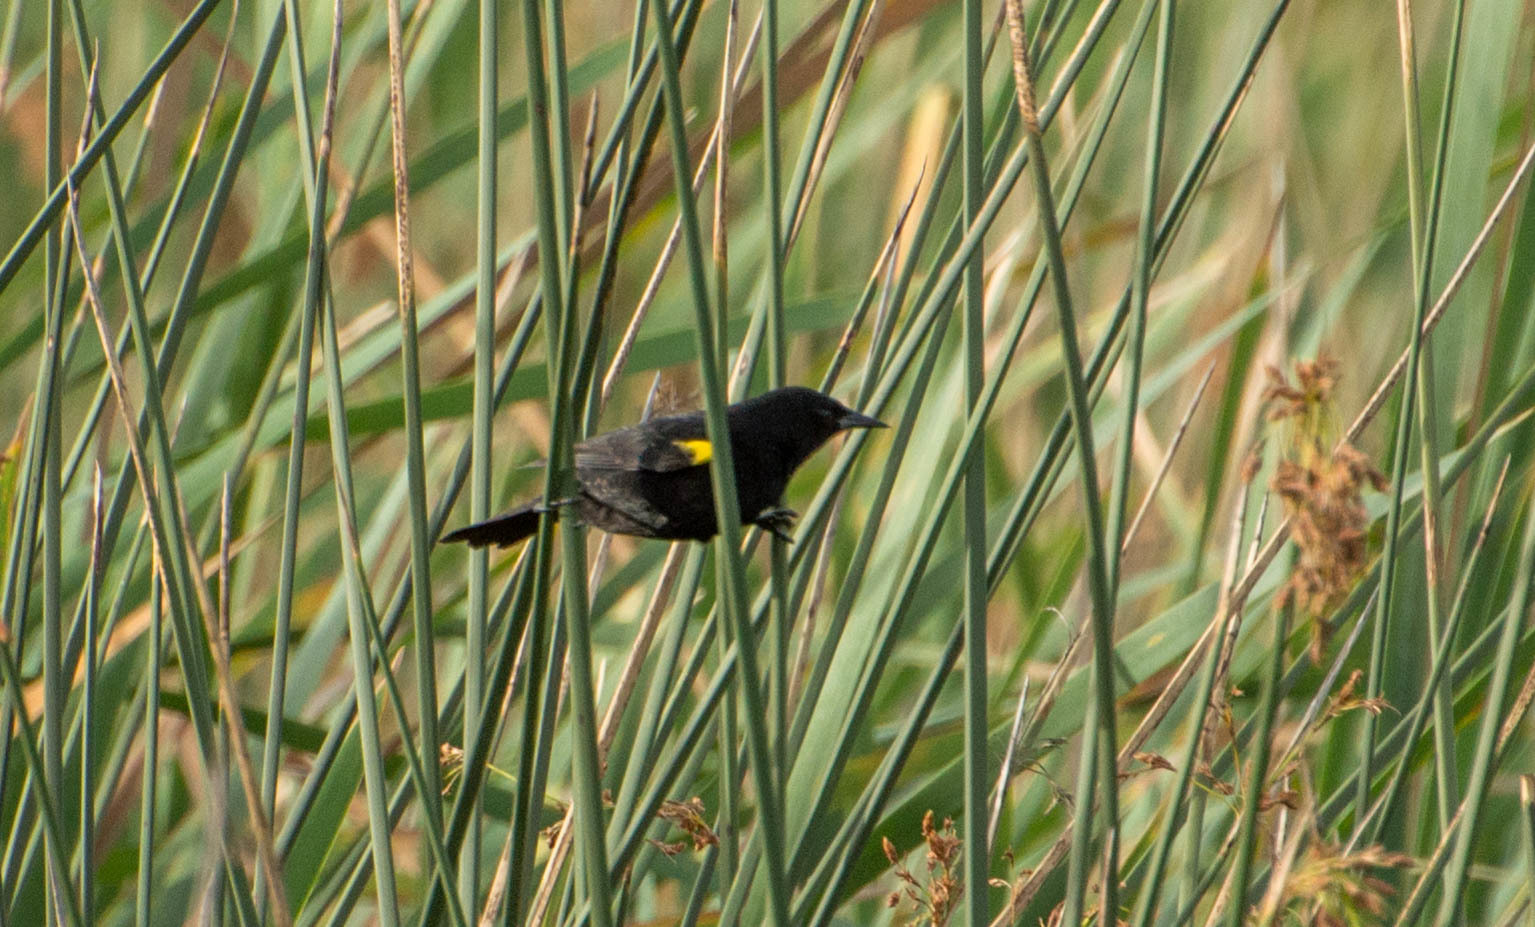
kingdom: Animalia
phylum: Chordata
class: Aves
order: Passeriformes
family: Icteridae
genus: Agelasticus
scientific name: Agelasticus thilius
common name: Yellow-winged blackbird
